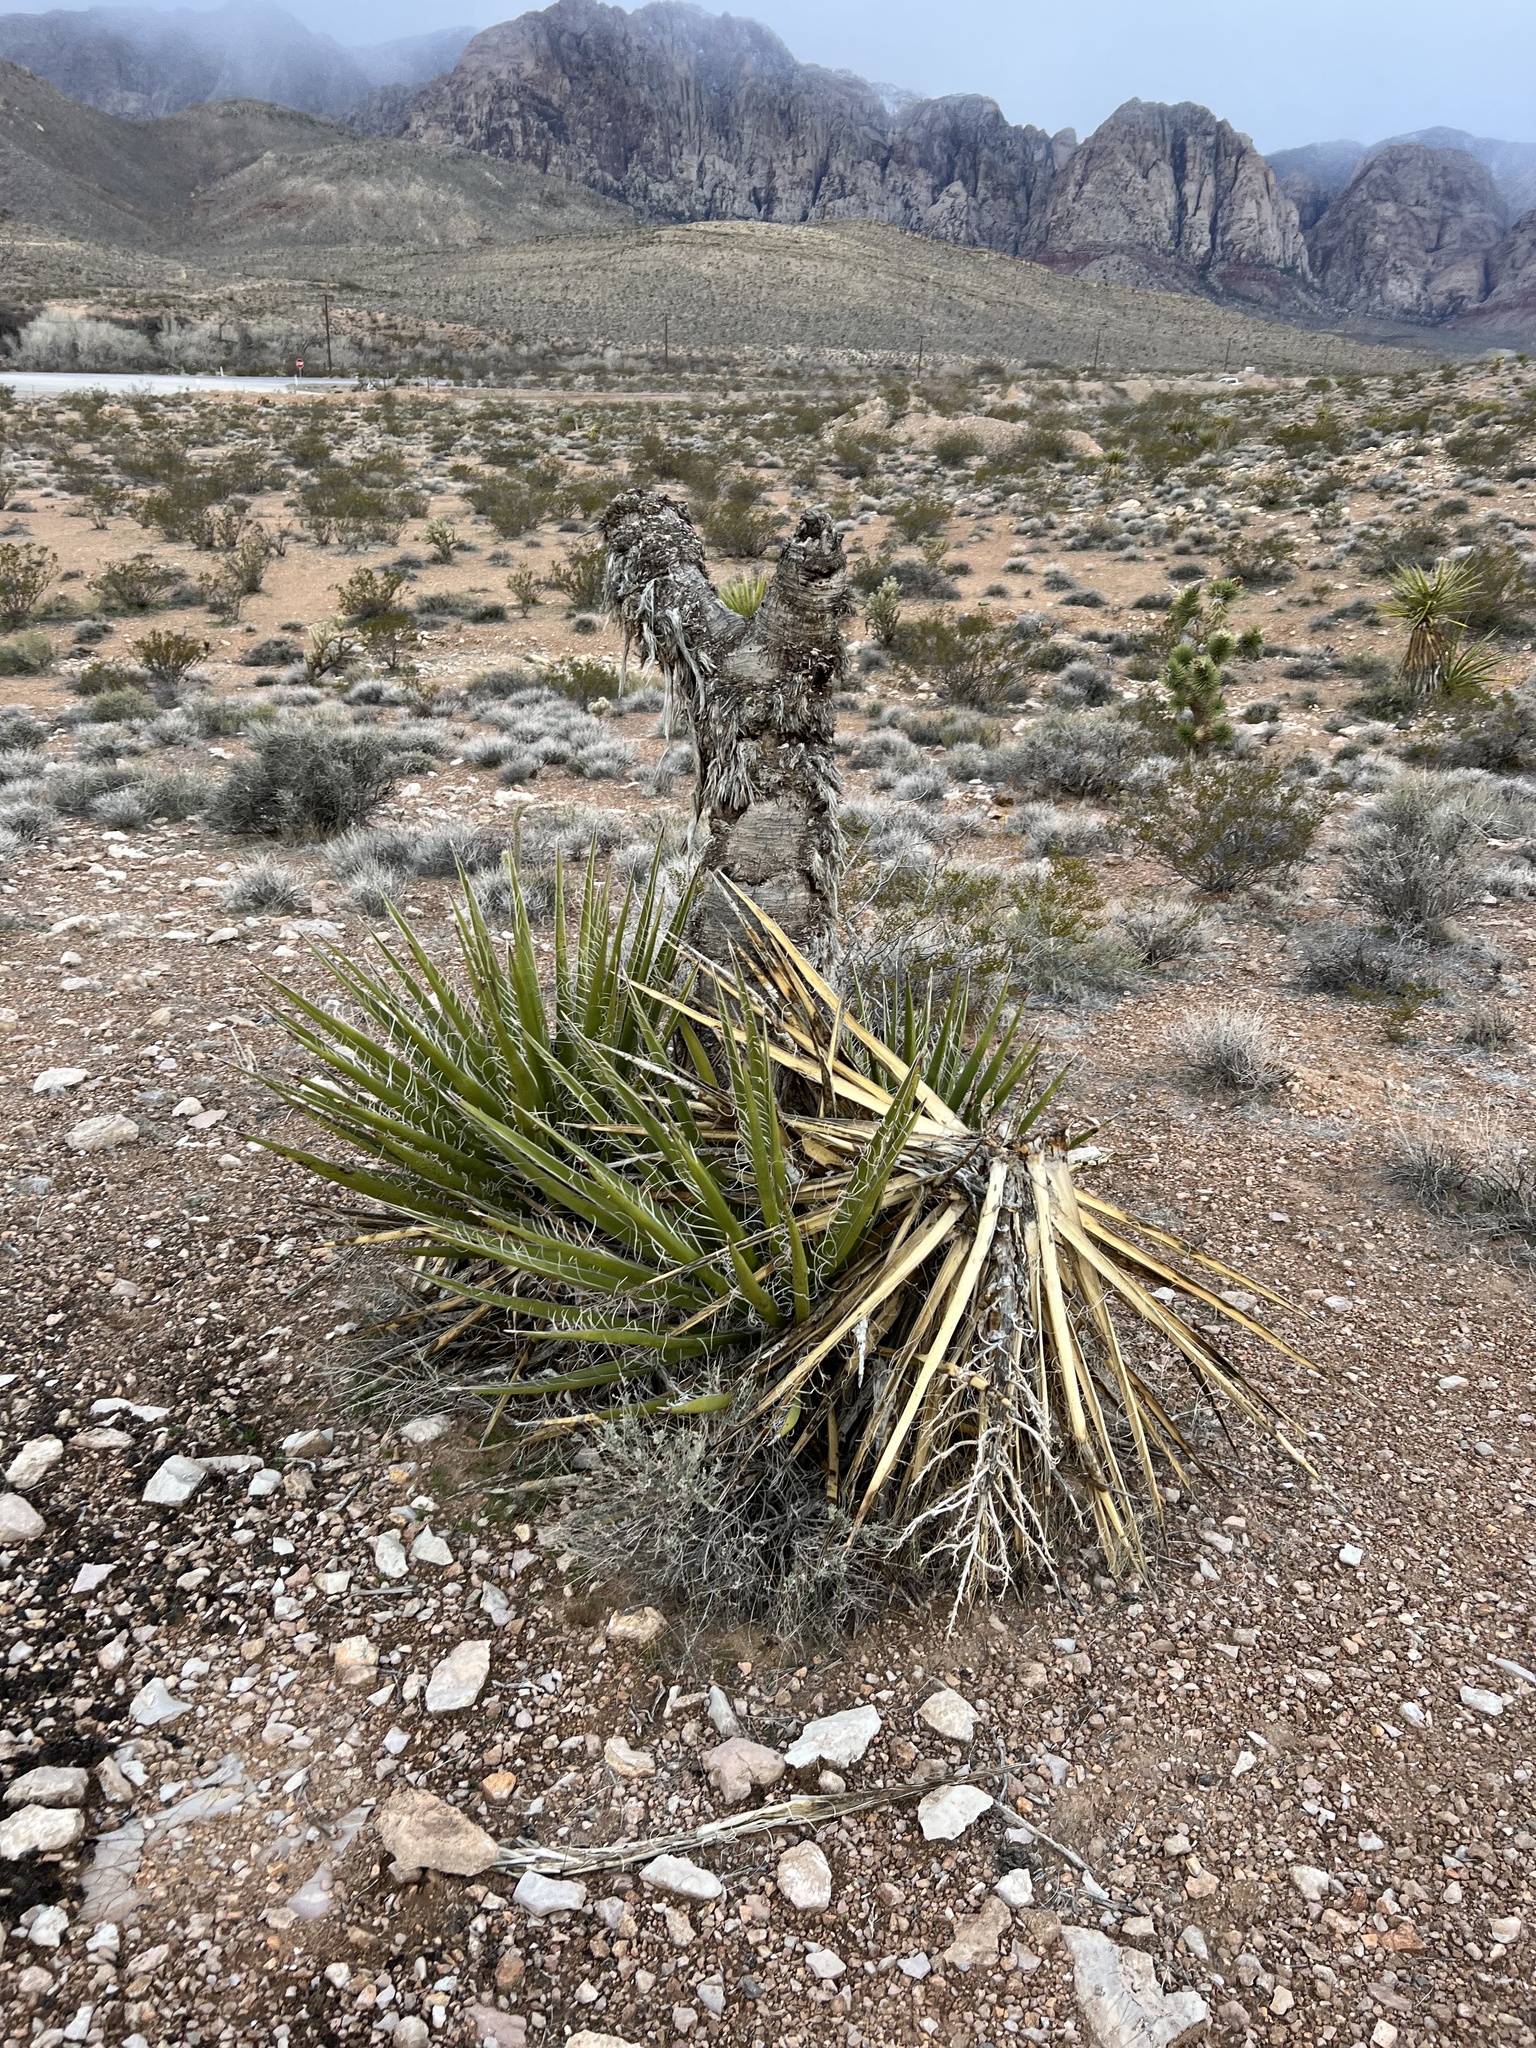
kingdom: Plantae
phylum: Tracheophyta
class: Liliopsida
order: Asparagales
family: Asparagaceae
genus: Yucca
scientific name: Yucca schidigera
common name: Mojave yucca
